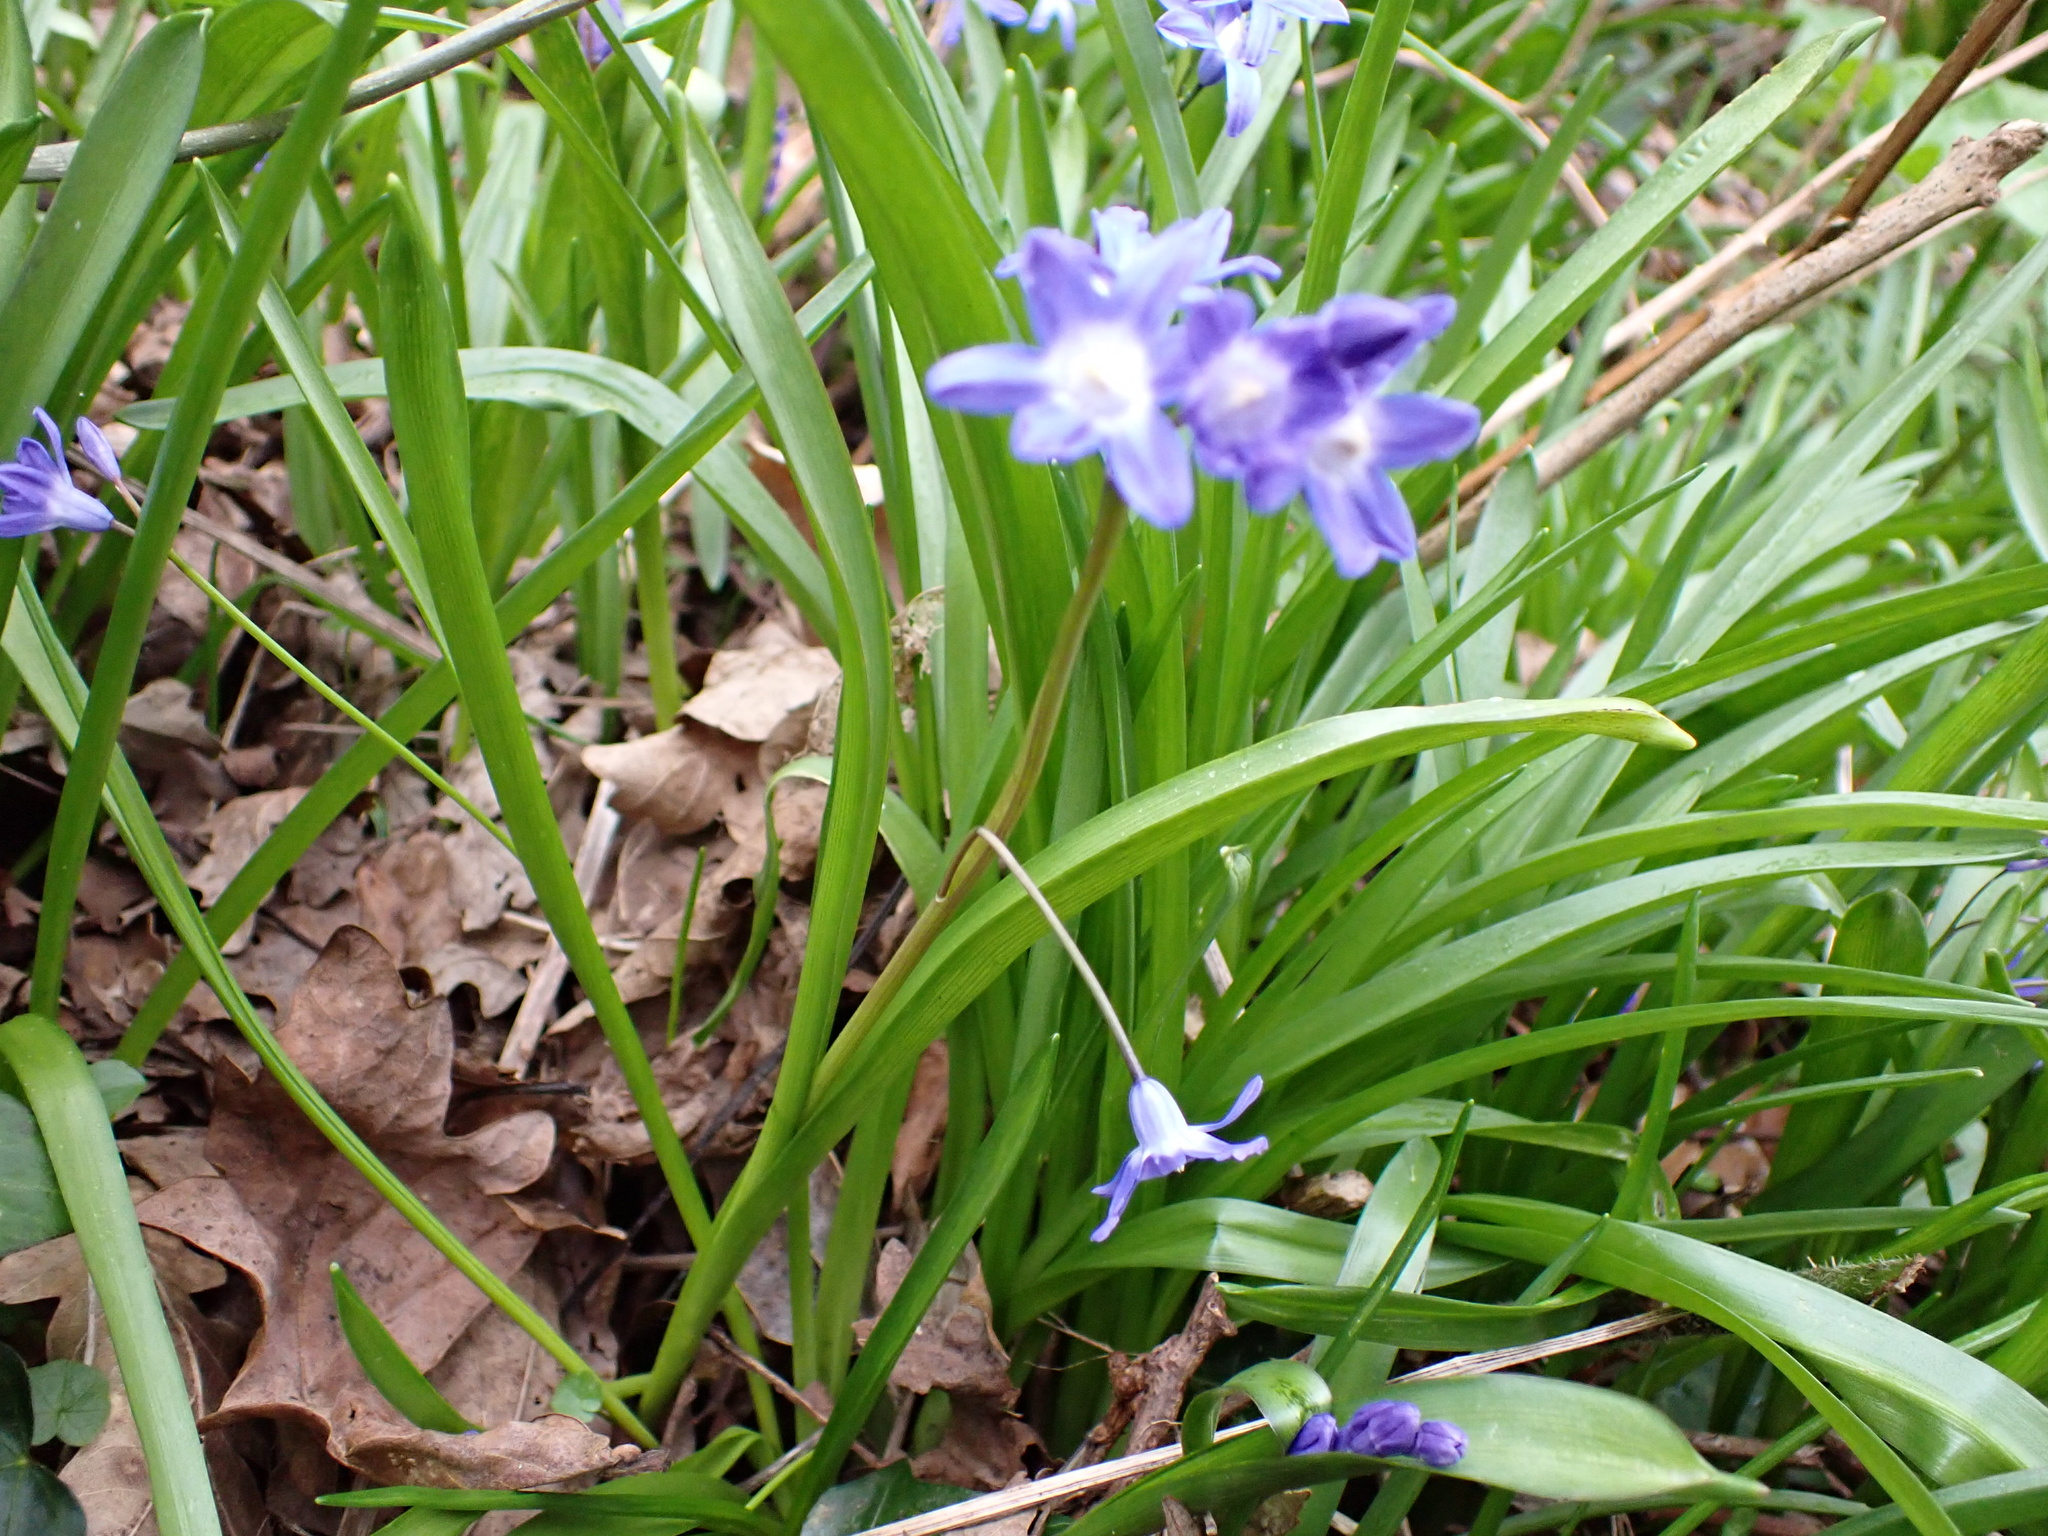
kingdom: Plantae
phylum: Tracheophyta
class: Liliopsida
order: Asparagales
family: Asparagaceae
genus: Scilla
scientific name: Scilla forbesii
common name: Glory-of-the-snow
